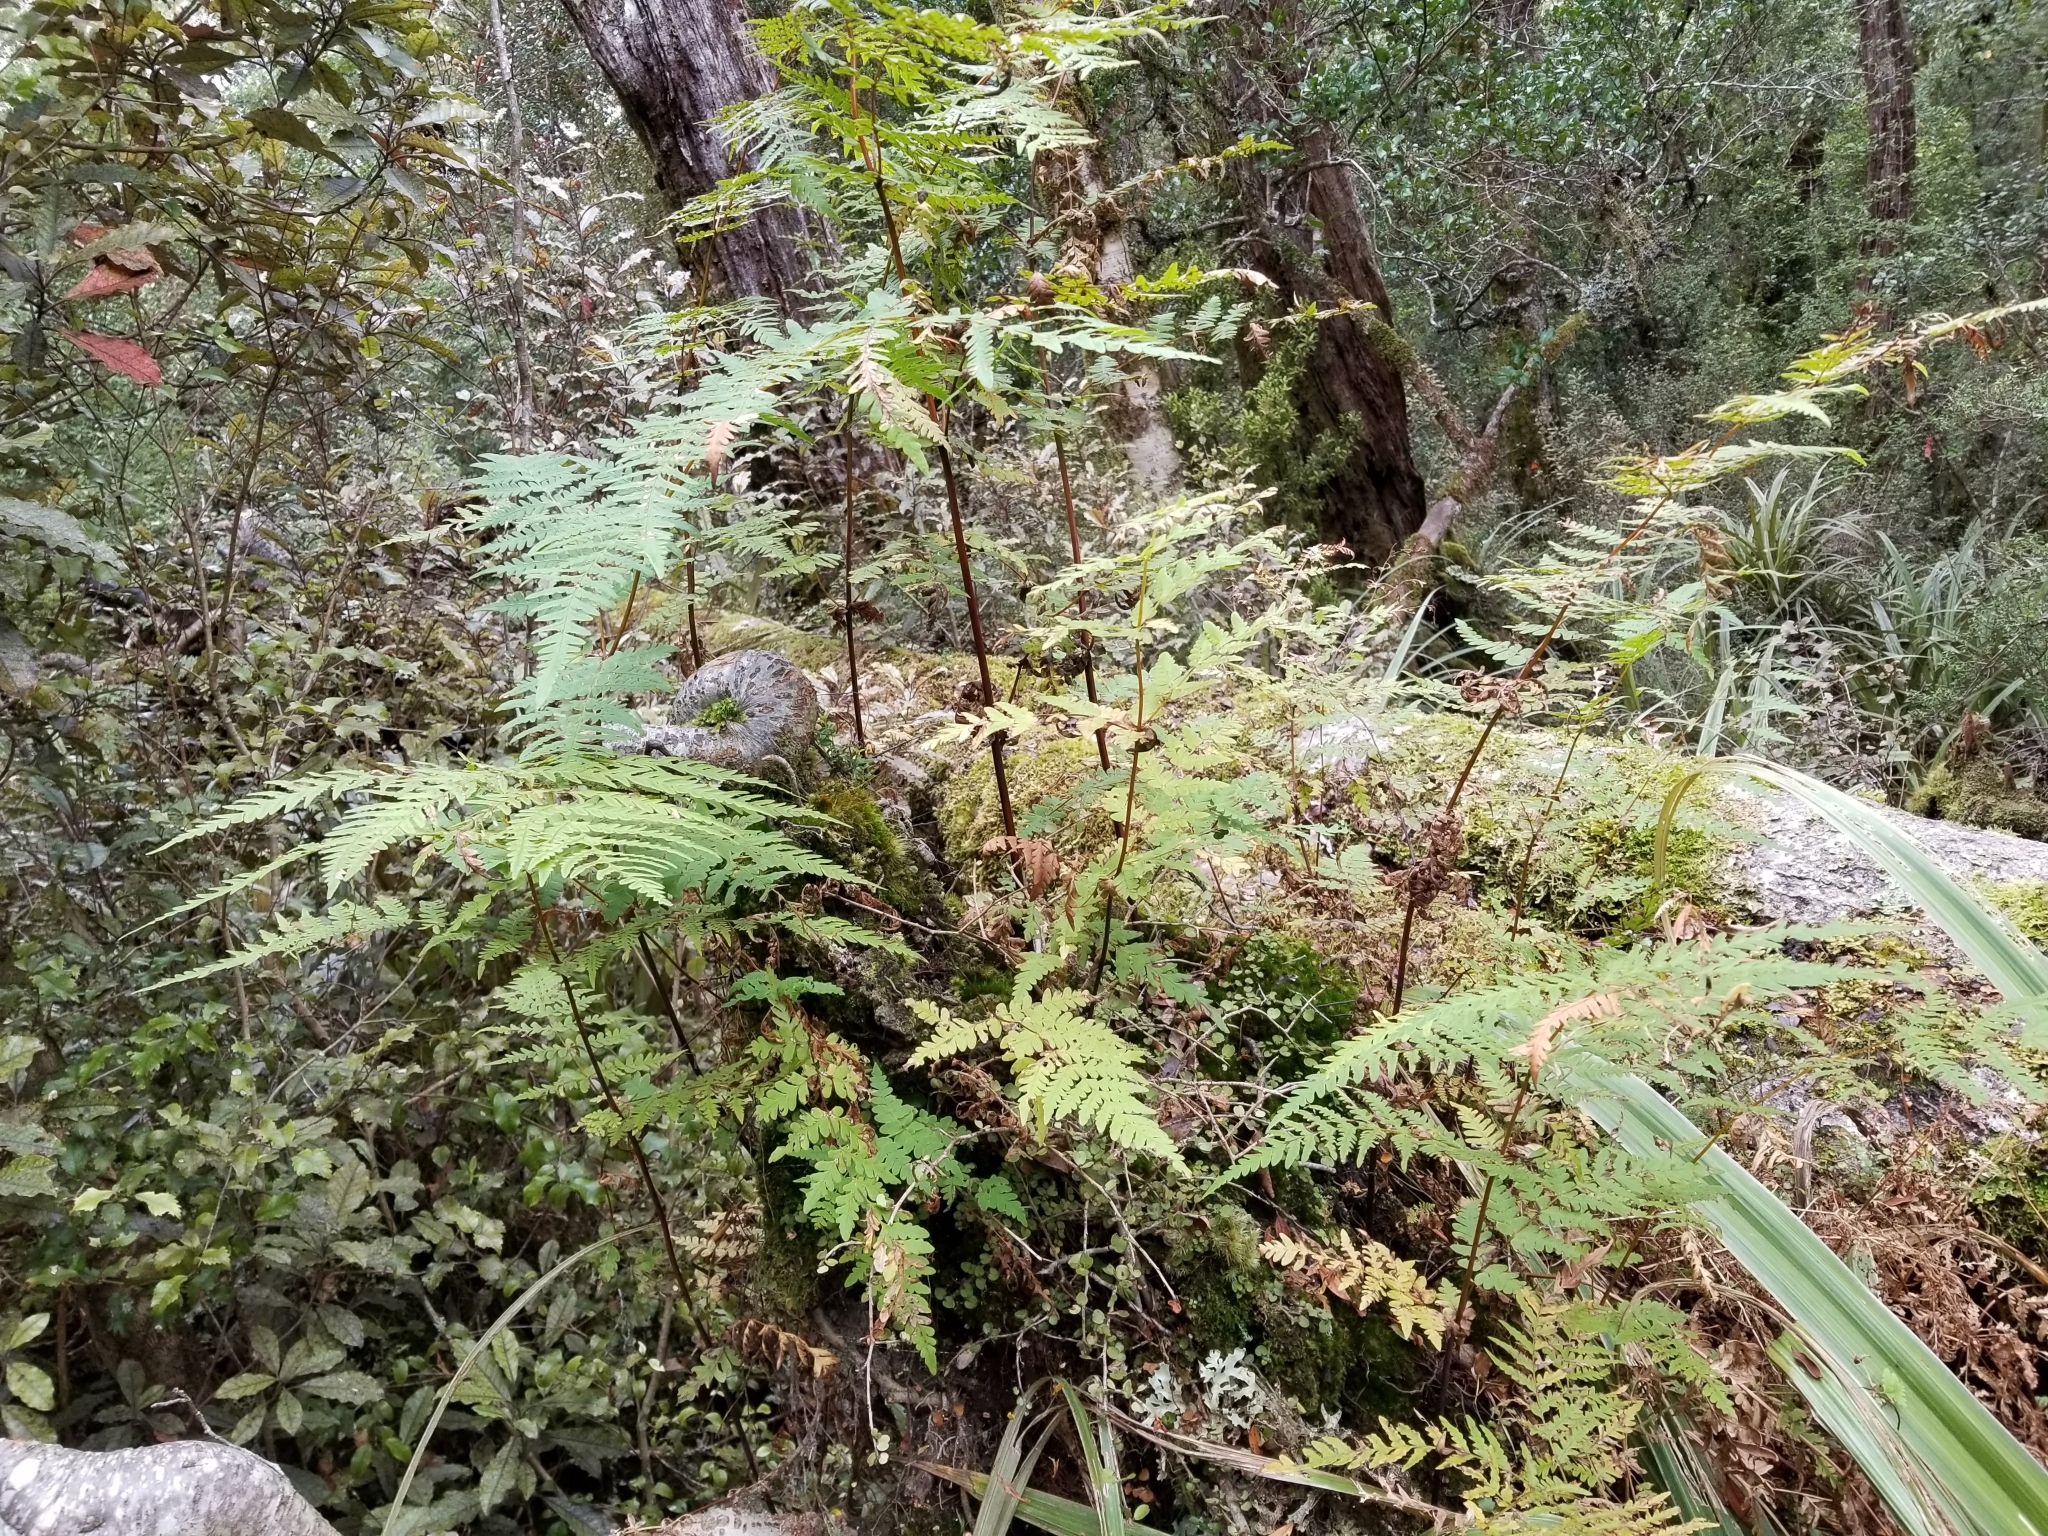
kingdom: Plantae
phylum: Tracheophyta
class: Polypodiopsida
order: Polypodiales
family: Dennstaedtiaceae
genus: Histiopteris
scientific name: Histiopteris incisa
